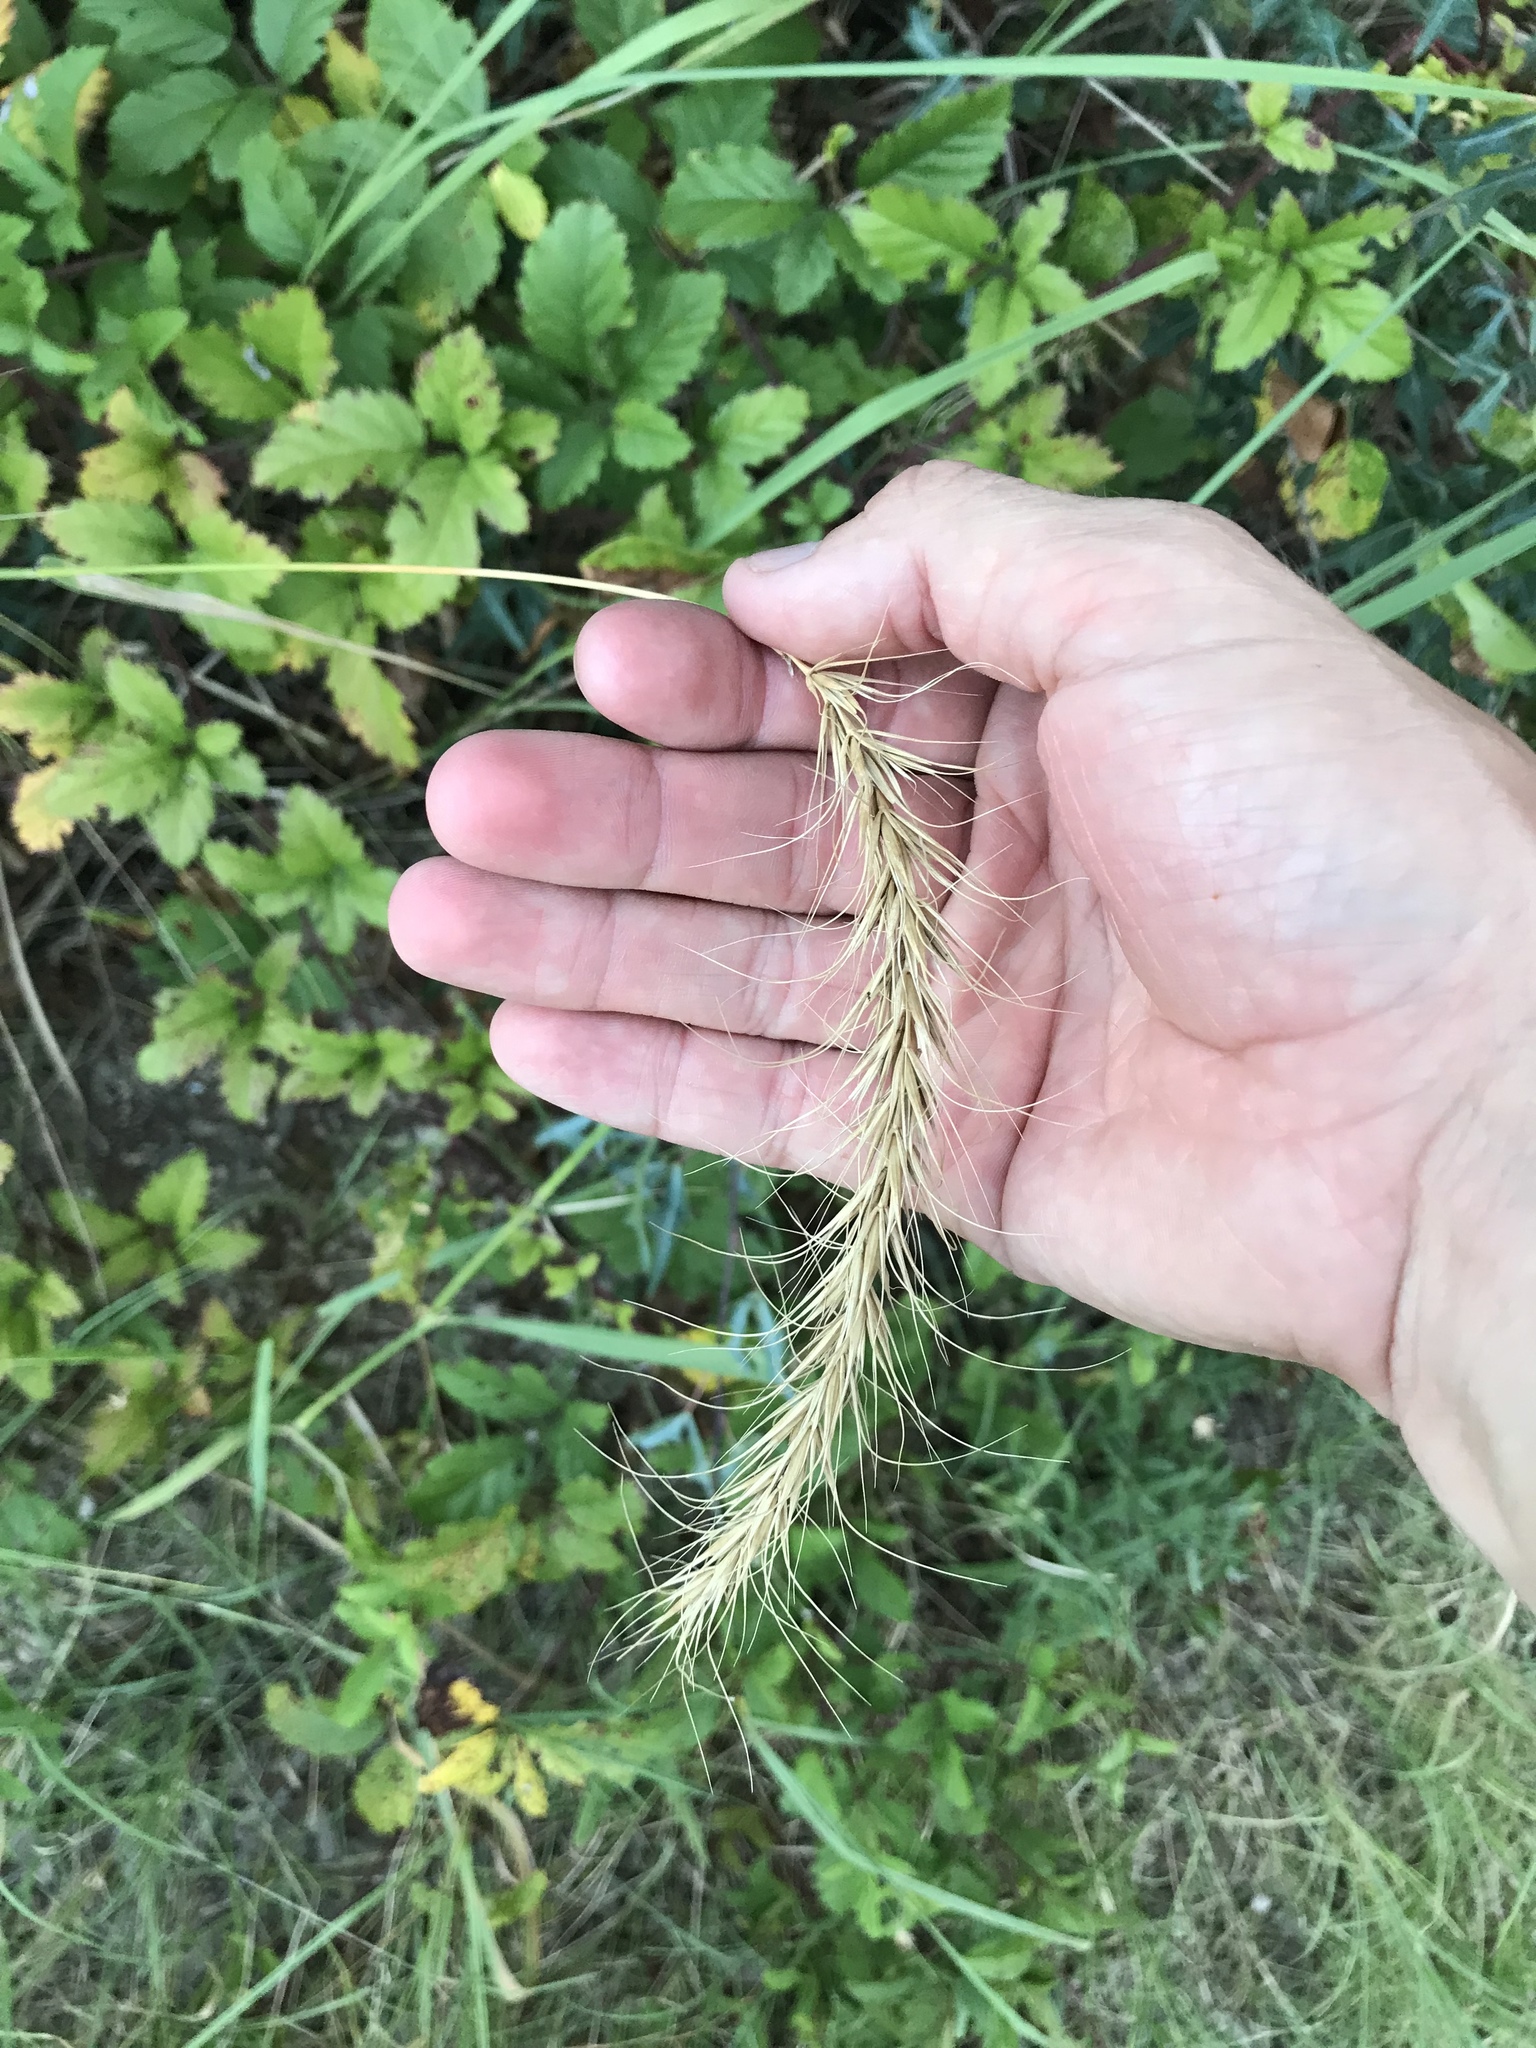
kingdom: Plantae
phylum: Tracheophyta
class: Liliopsida
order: Poales
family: Poaceae
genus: Elymus
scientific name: Elymus canadensis
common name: Canada wild rye
